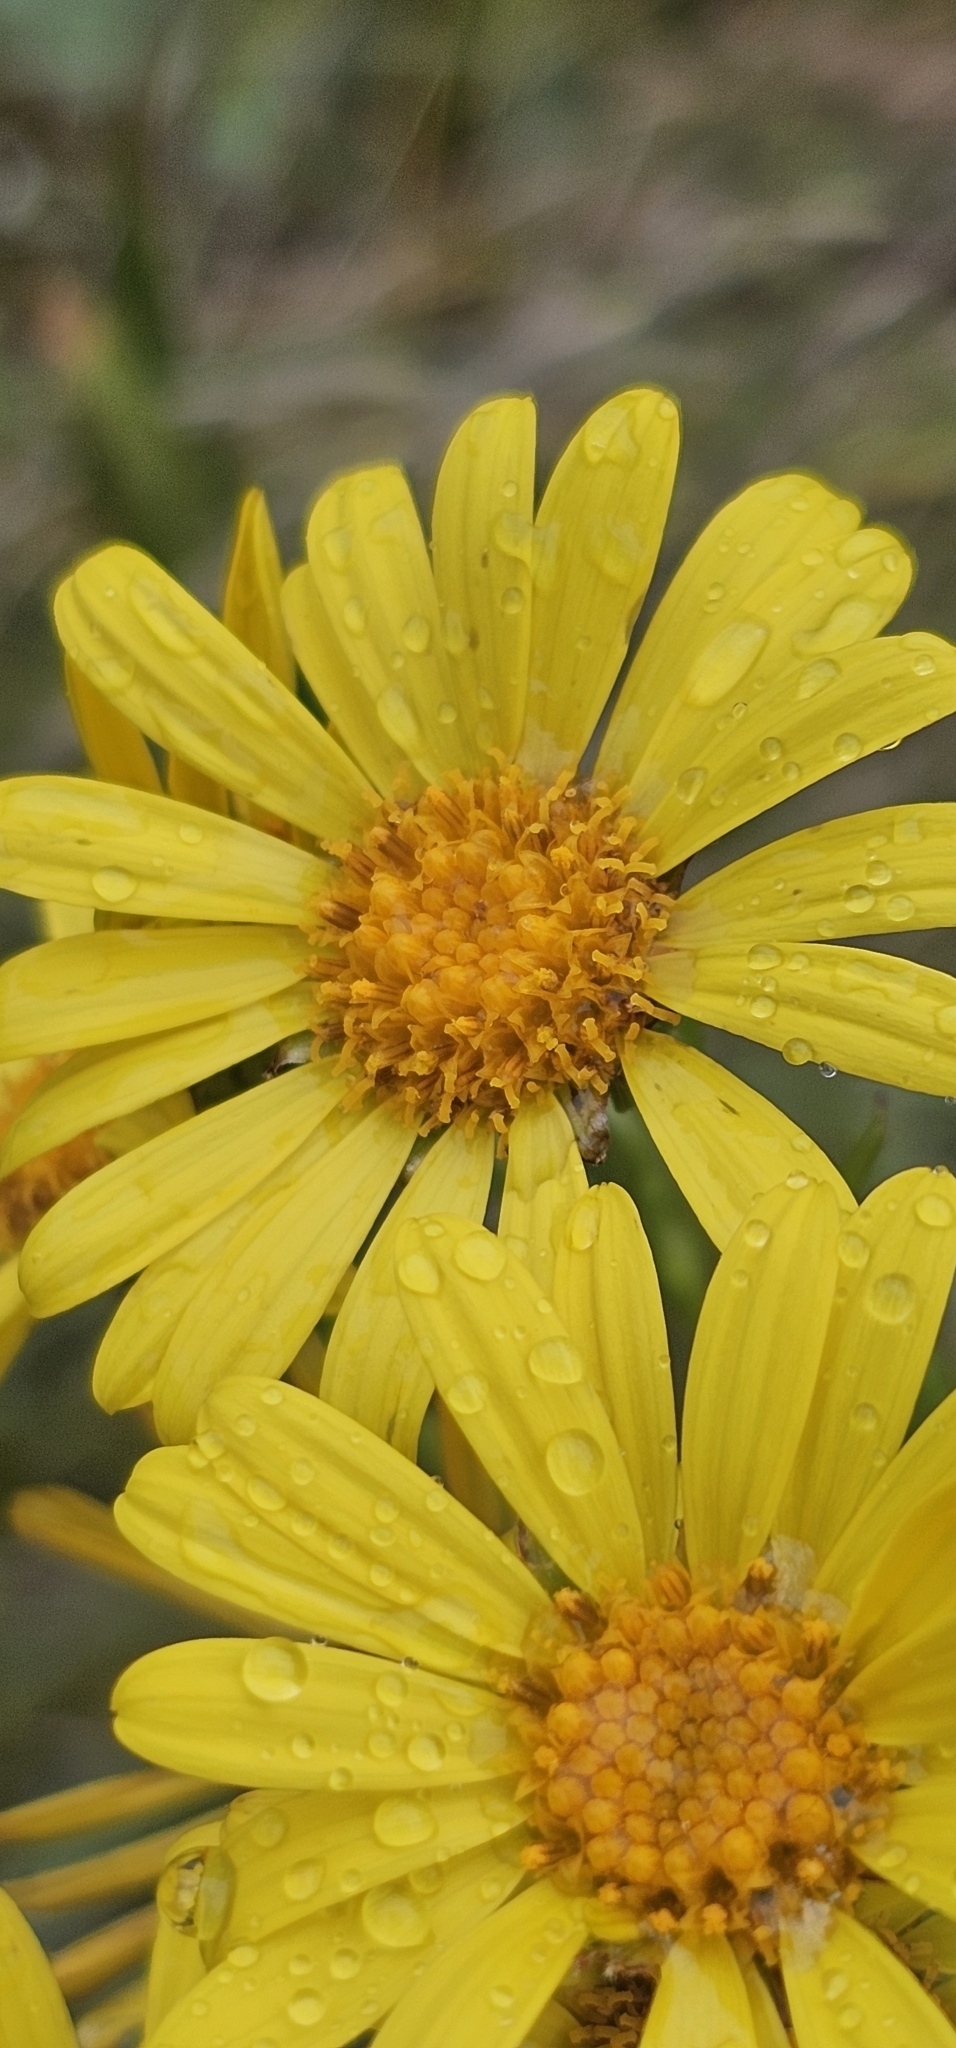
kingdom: Plantae
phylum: Tracheophyta
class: Magnoliopsida
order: Asterales
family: Asteraceae
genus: Dolichoglottis
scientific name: Dolichoglottis lyallii
